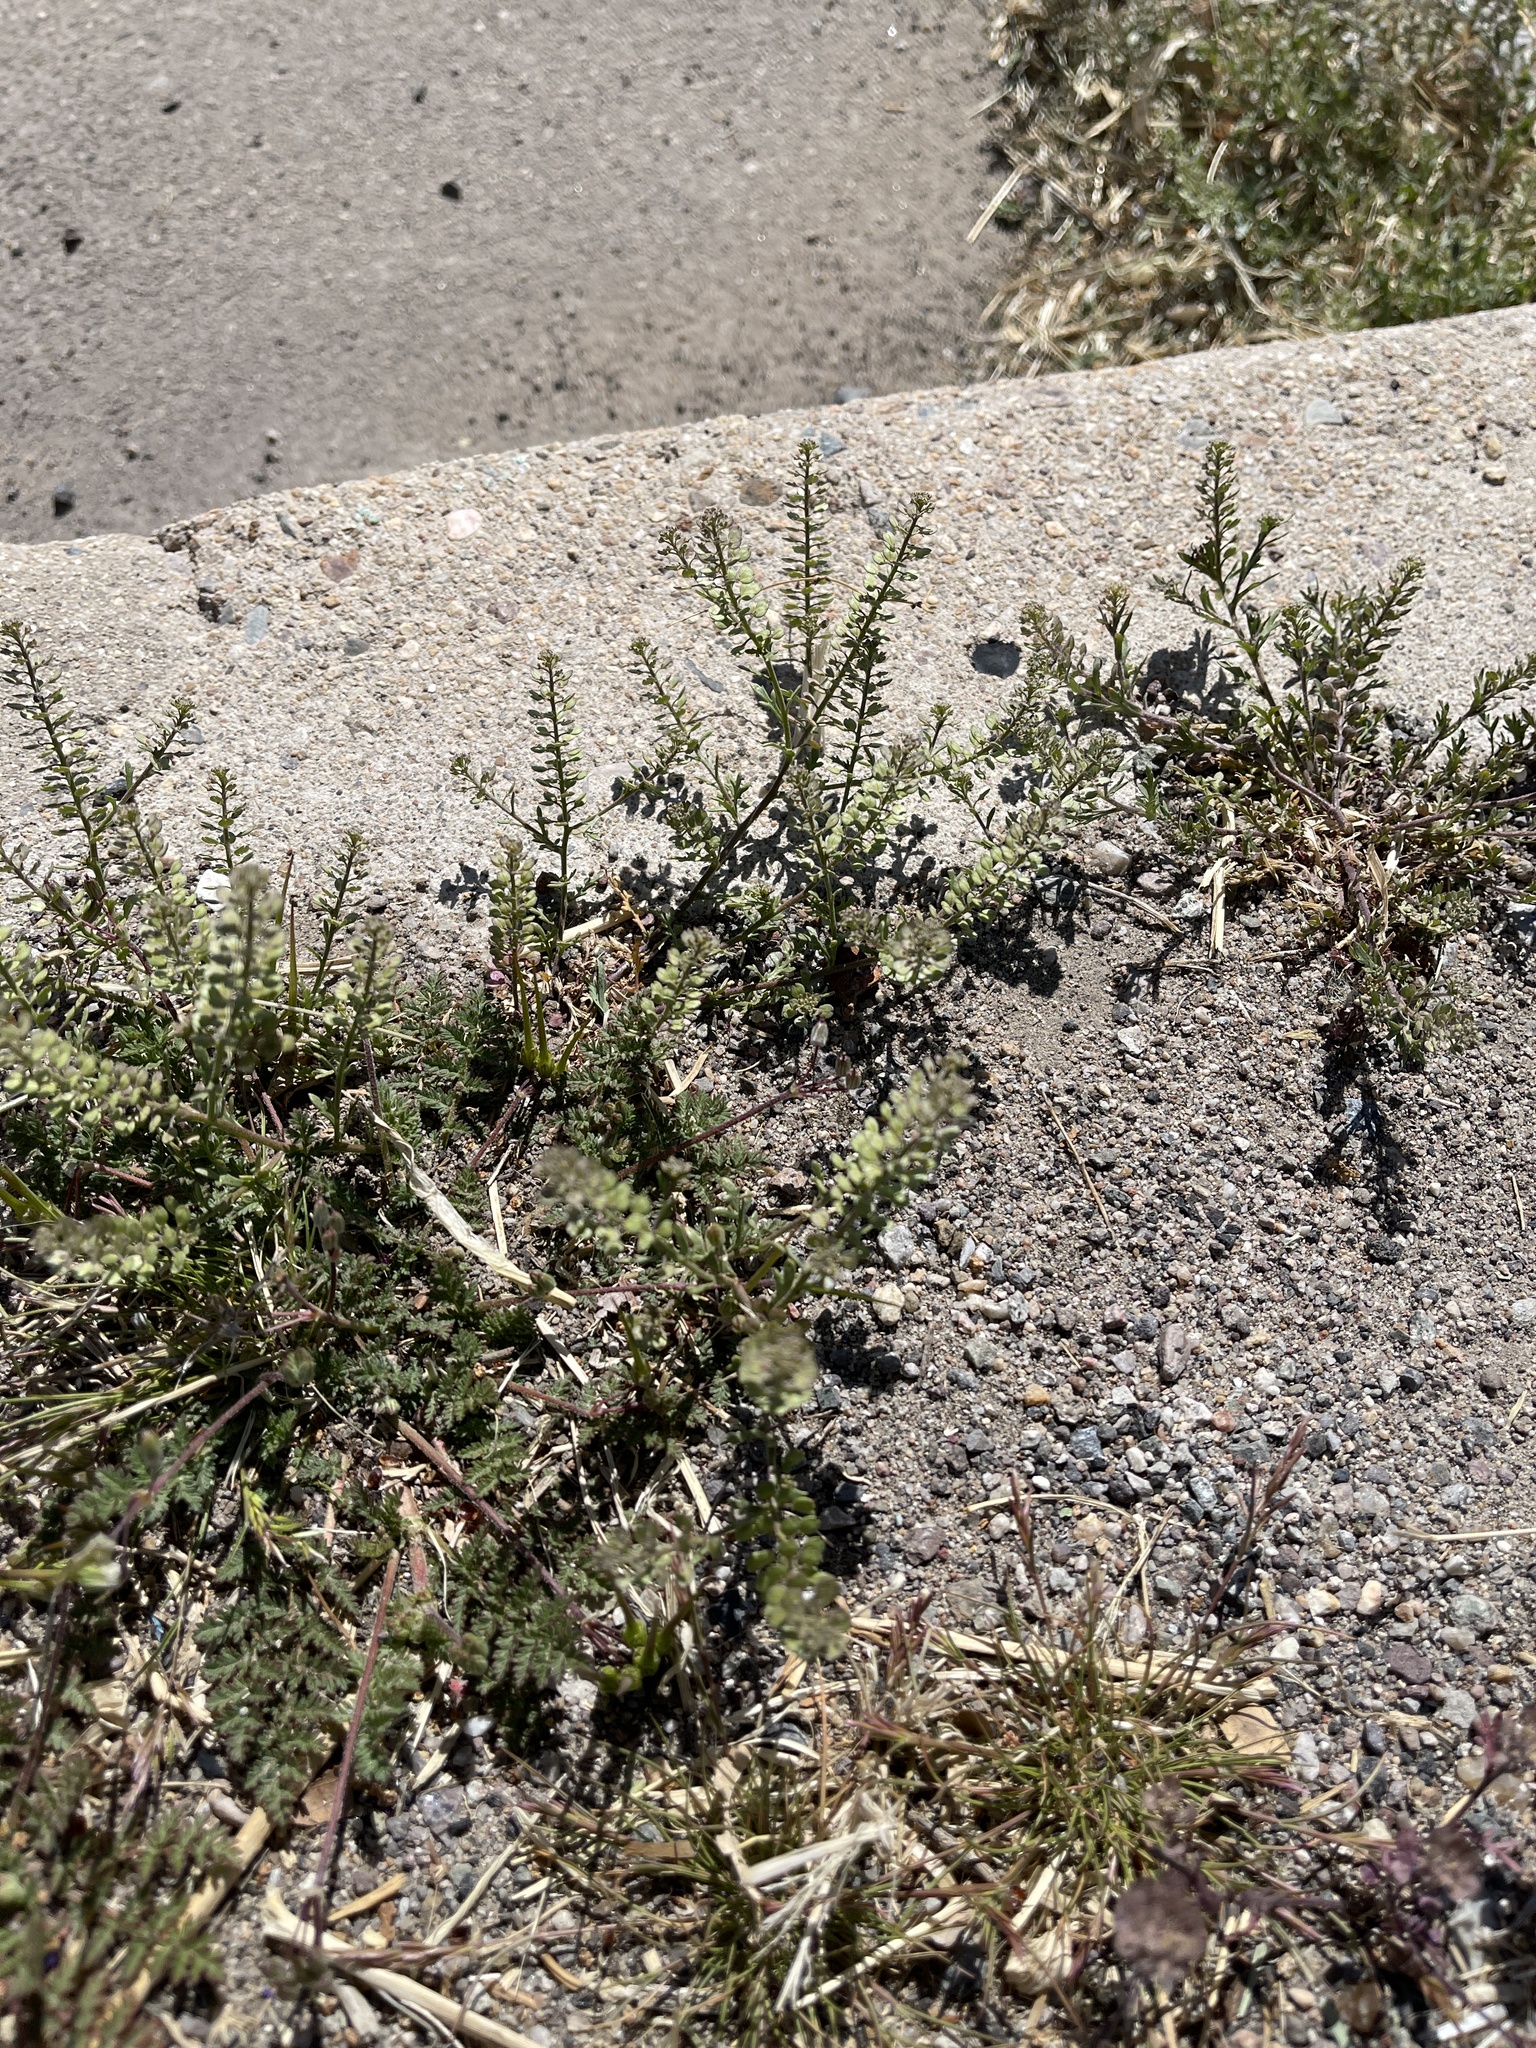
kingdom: Plantae
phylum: Tracheophyta
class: Magnoliopsida
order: Brassicales
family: Brassicaceae
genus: Lepidium
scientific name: Lepidium lasiocarpum
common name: Hairy-pod pepperwort
